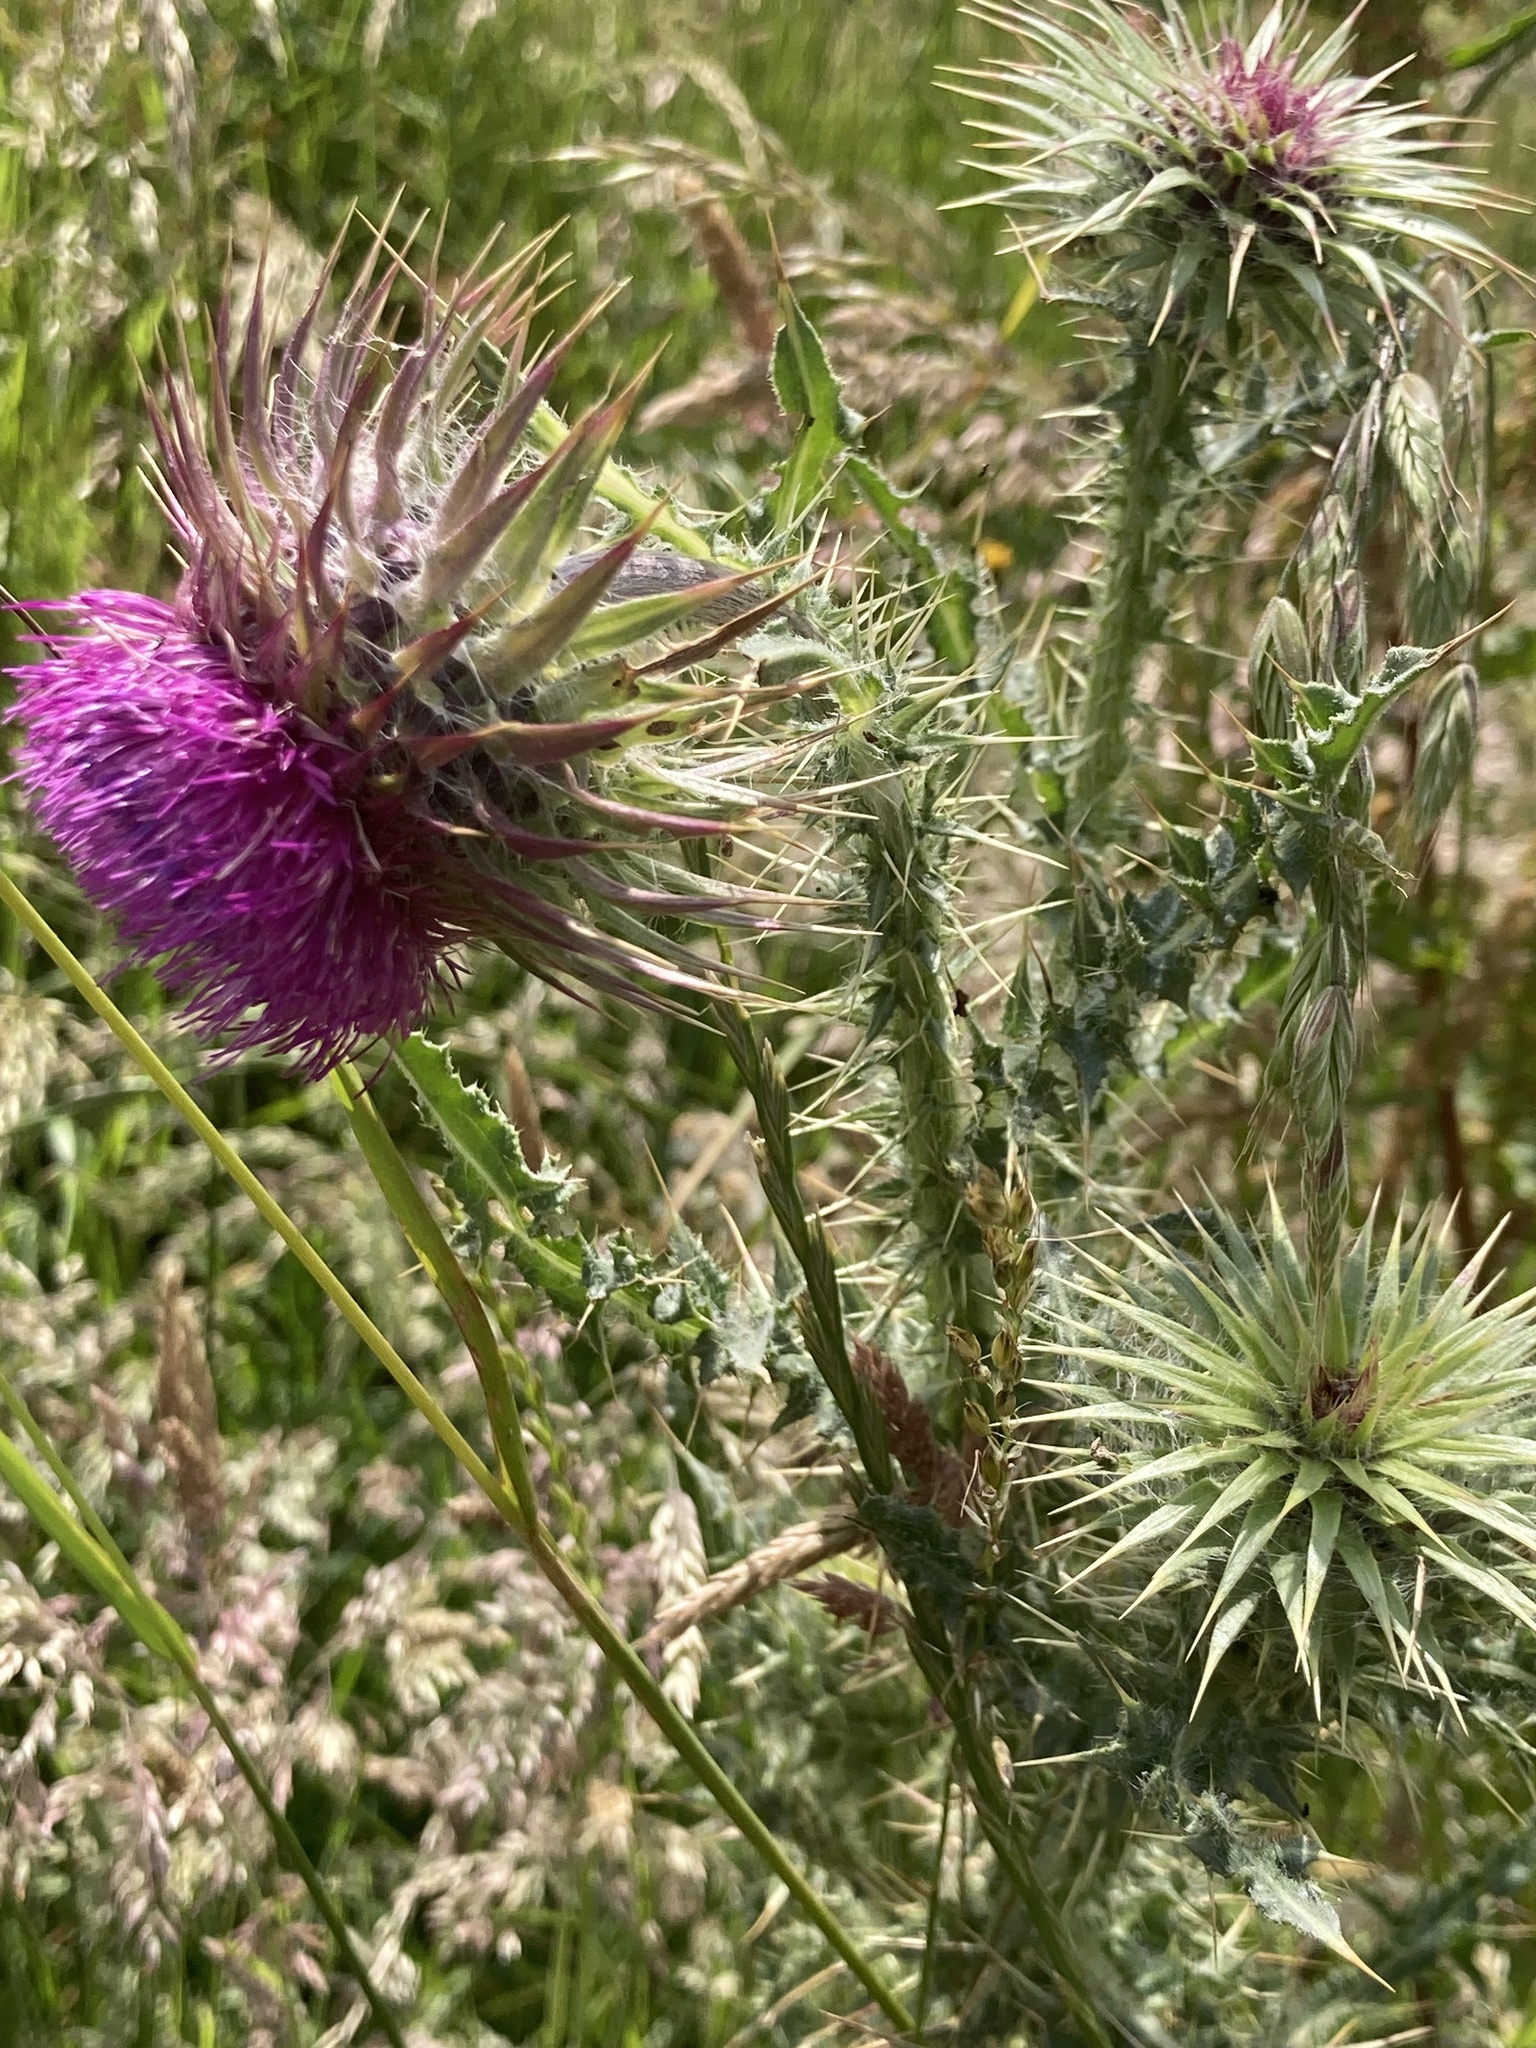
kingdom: Plantae
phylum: Tracheophyta
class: Magnoliopsida
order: Asterales
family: Asteraceae
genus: Carduus
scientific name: Carduus nutans
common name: Musk thistle
